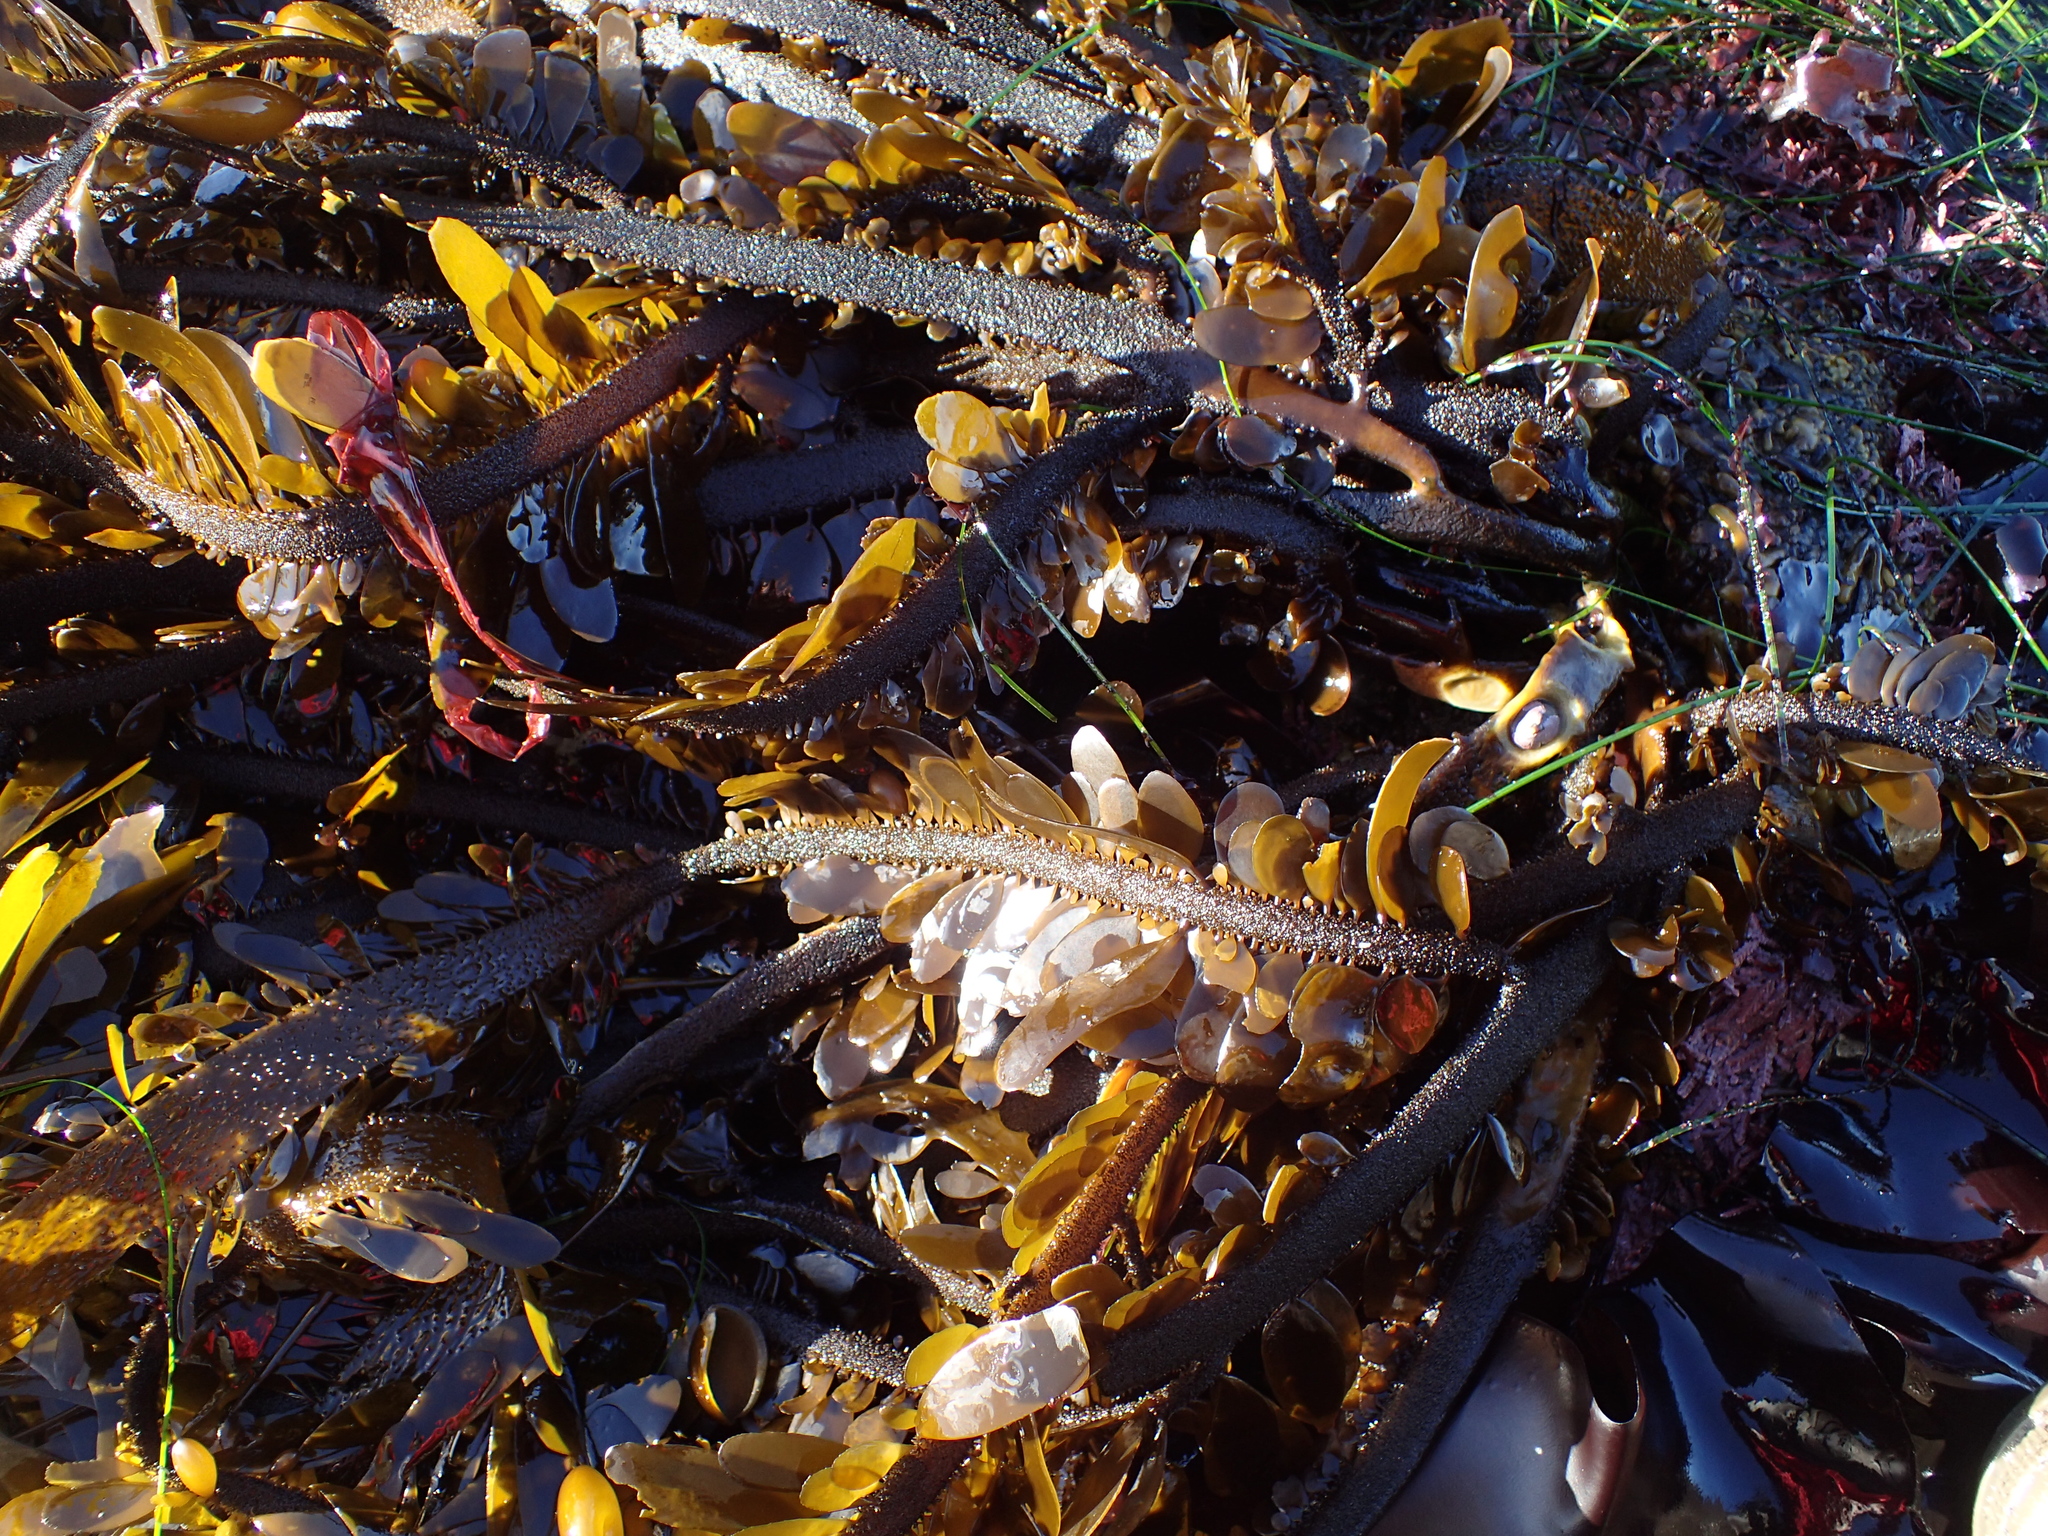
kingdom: Chromista
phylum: Ochrophyta
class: Phaeophyceae
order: Laminariales
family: Lessoniaceae
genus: Egregia
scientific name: Egregia menziesii
